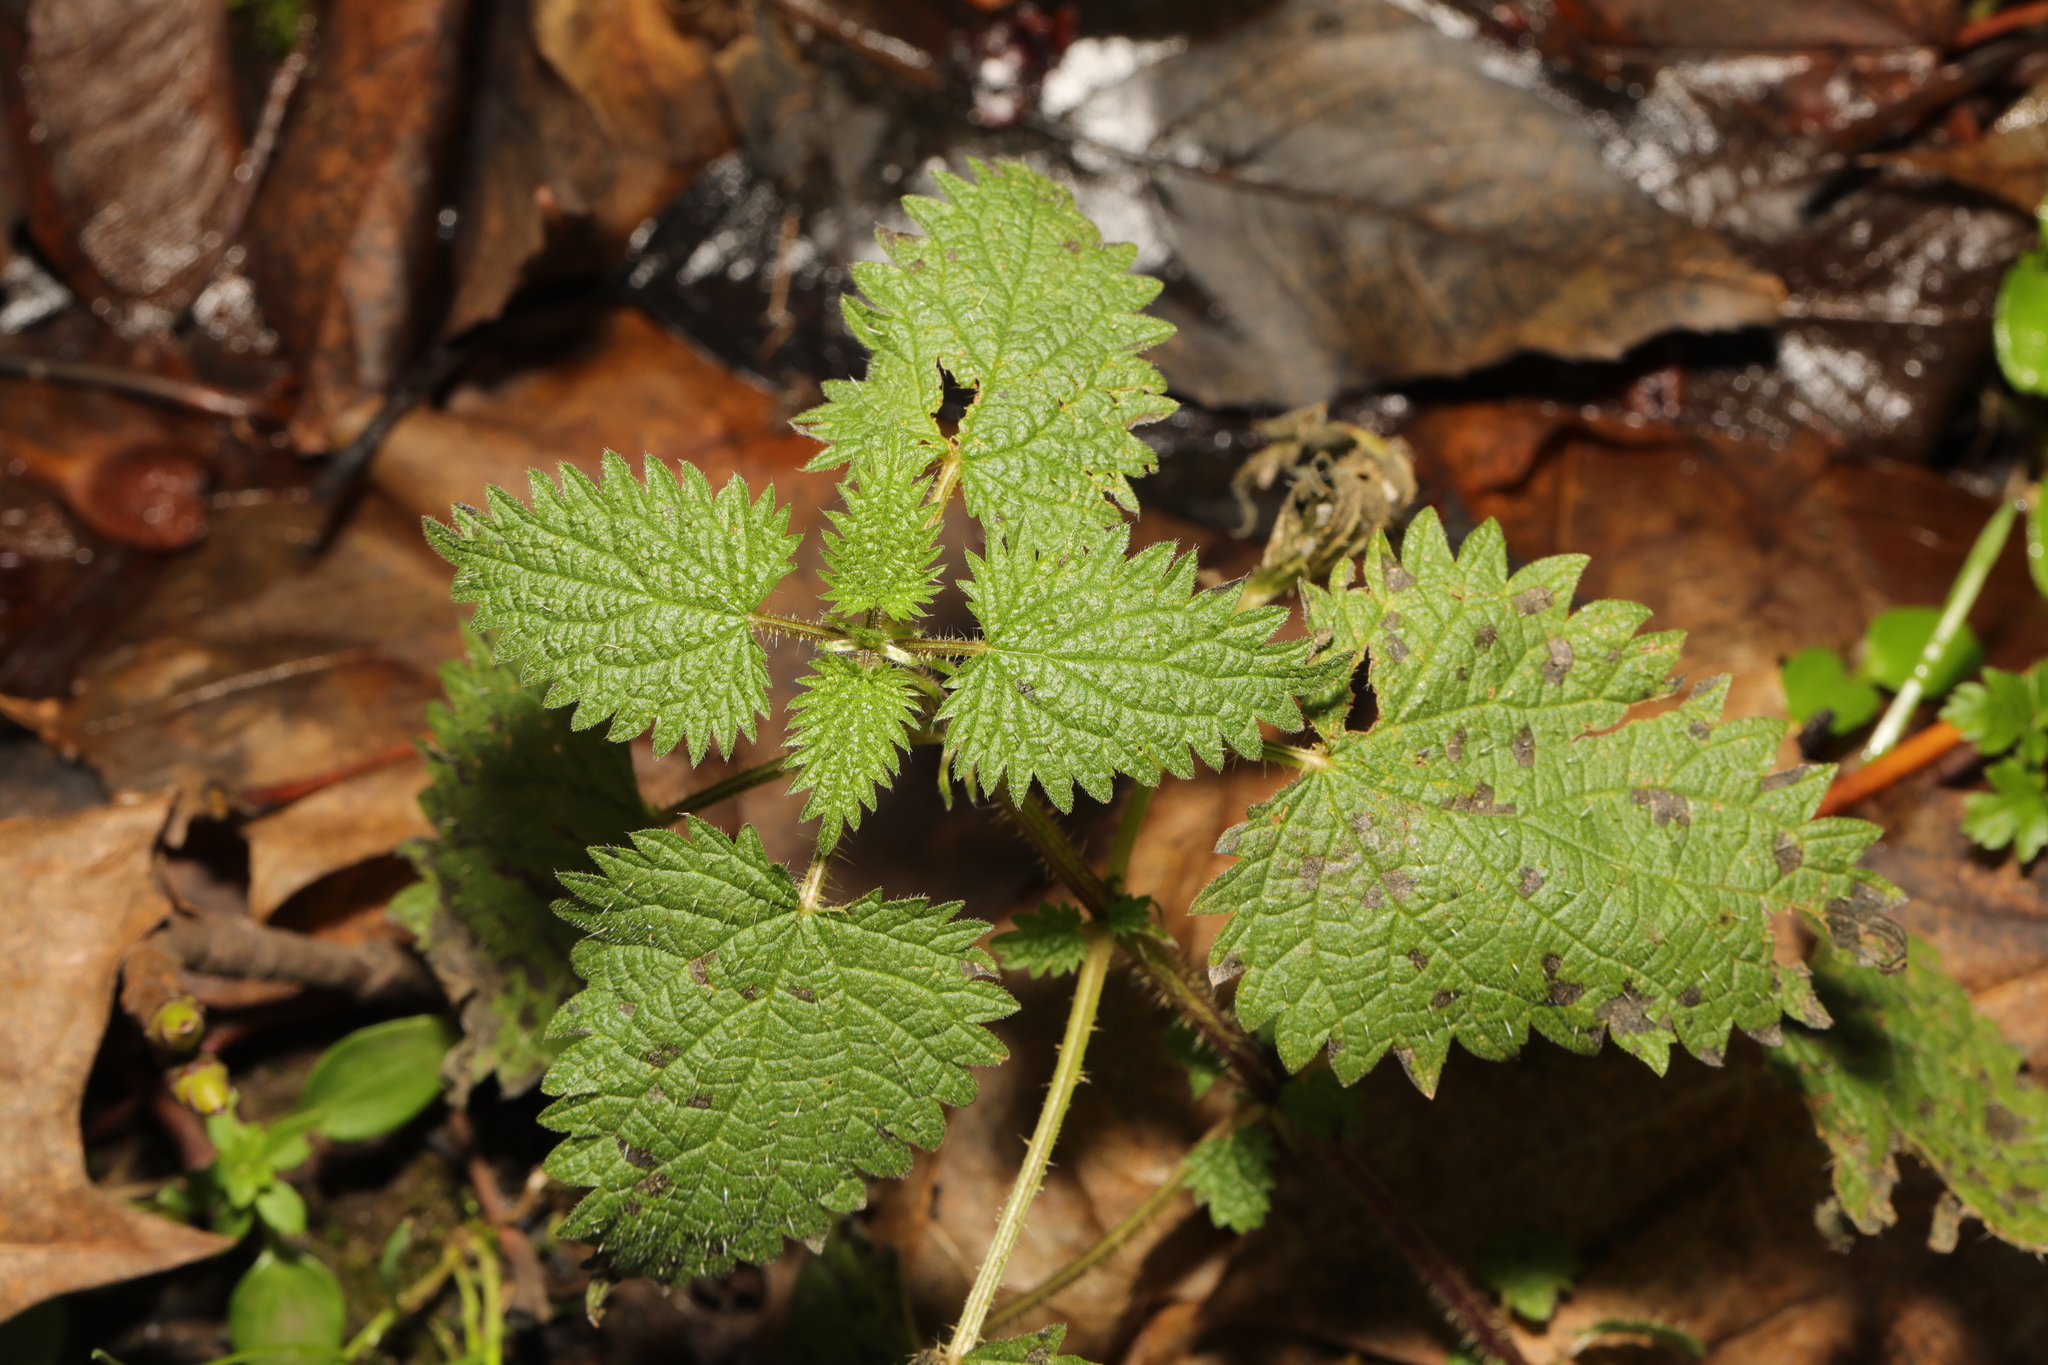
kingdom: Plantae
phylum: Tracheophyta
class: Magnoliopsida
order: Rosales
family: Urticaceae
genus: Urtica
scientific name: Urtica dioica
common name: Common nettle
